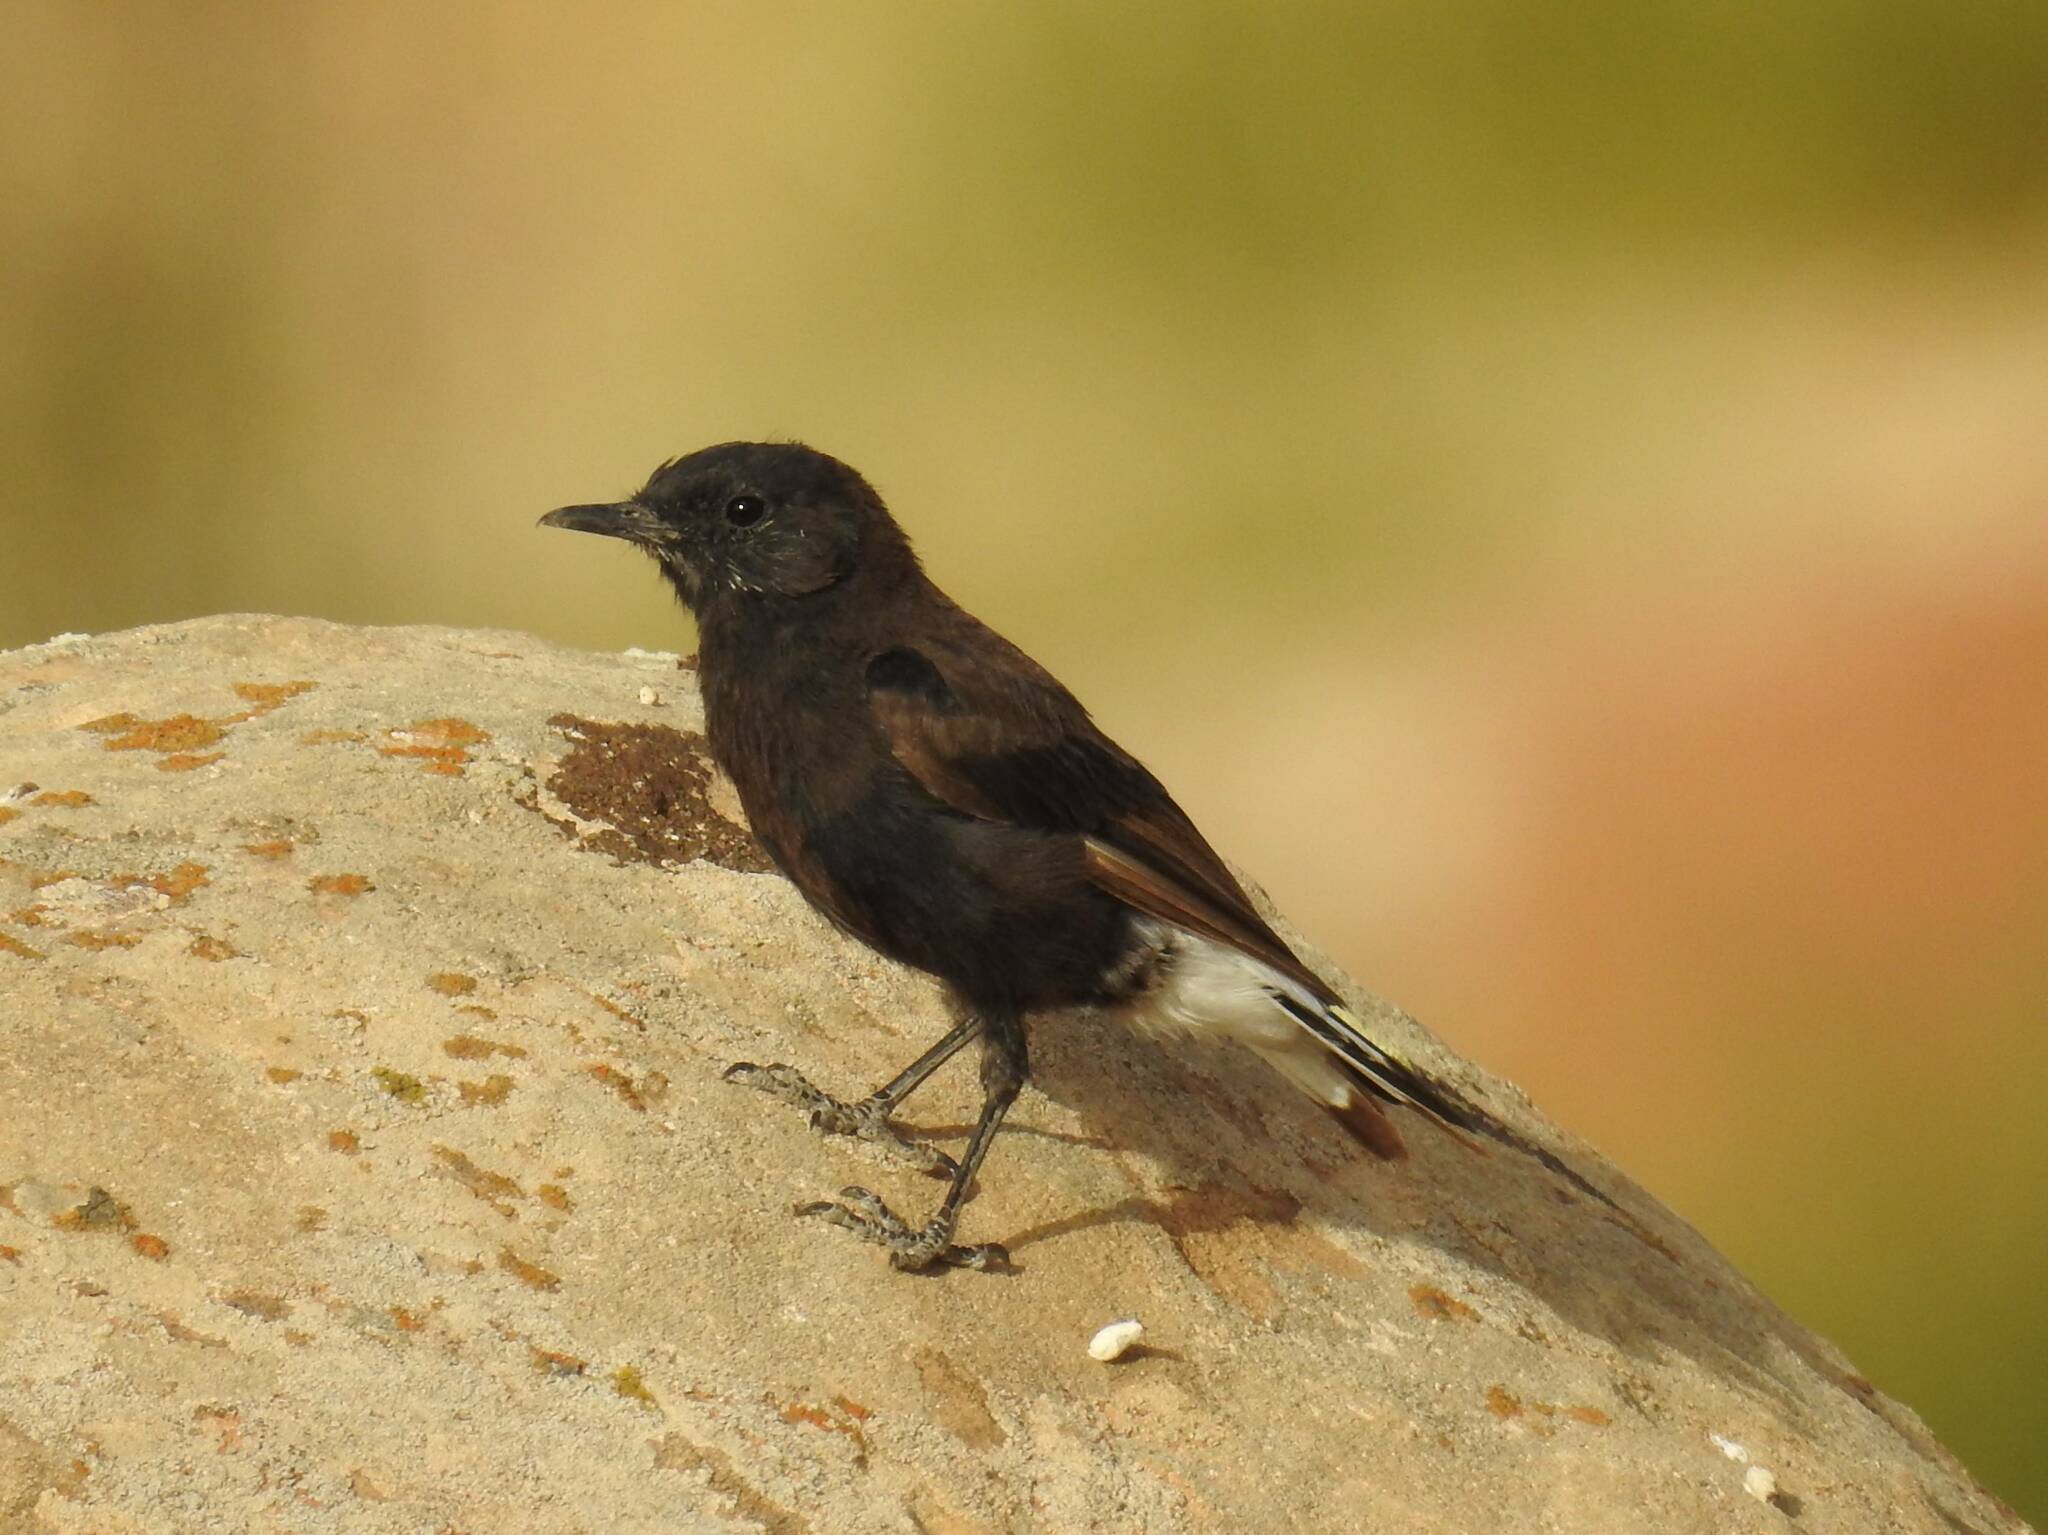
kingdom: Animalia
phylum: Chordata
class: Aves
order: Passeriformes
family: Muscicapidae
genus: Oenanthe
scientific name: Oenanthe leucura
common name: Black wheatear
